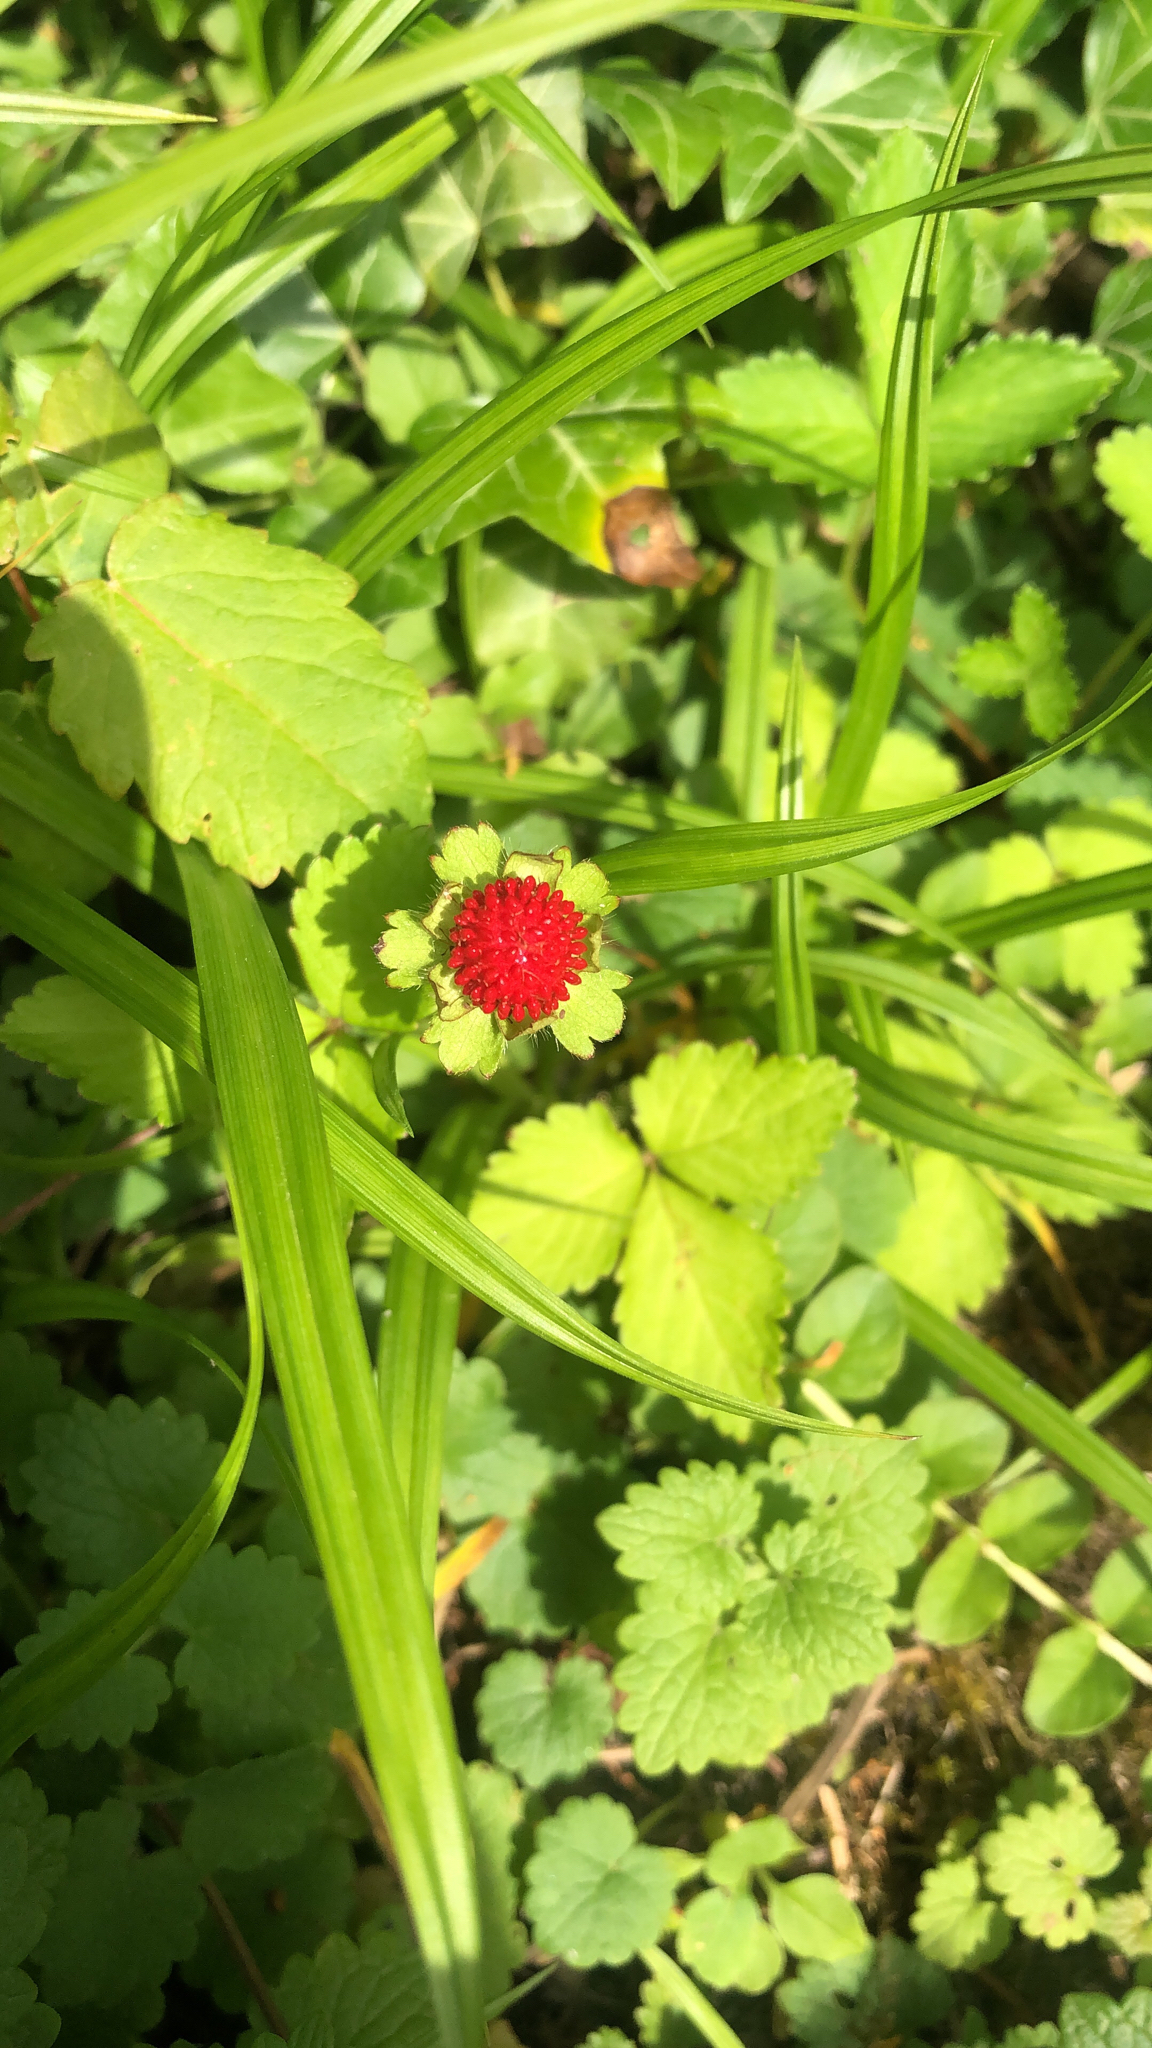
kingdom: Plantae
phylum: Tracheophyta
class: Magnoliopsida
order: Rosales
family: Rosaceae
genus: Potentilla
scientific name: Potentilla indica
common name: Yellow-flowered strawberry
